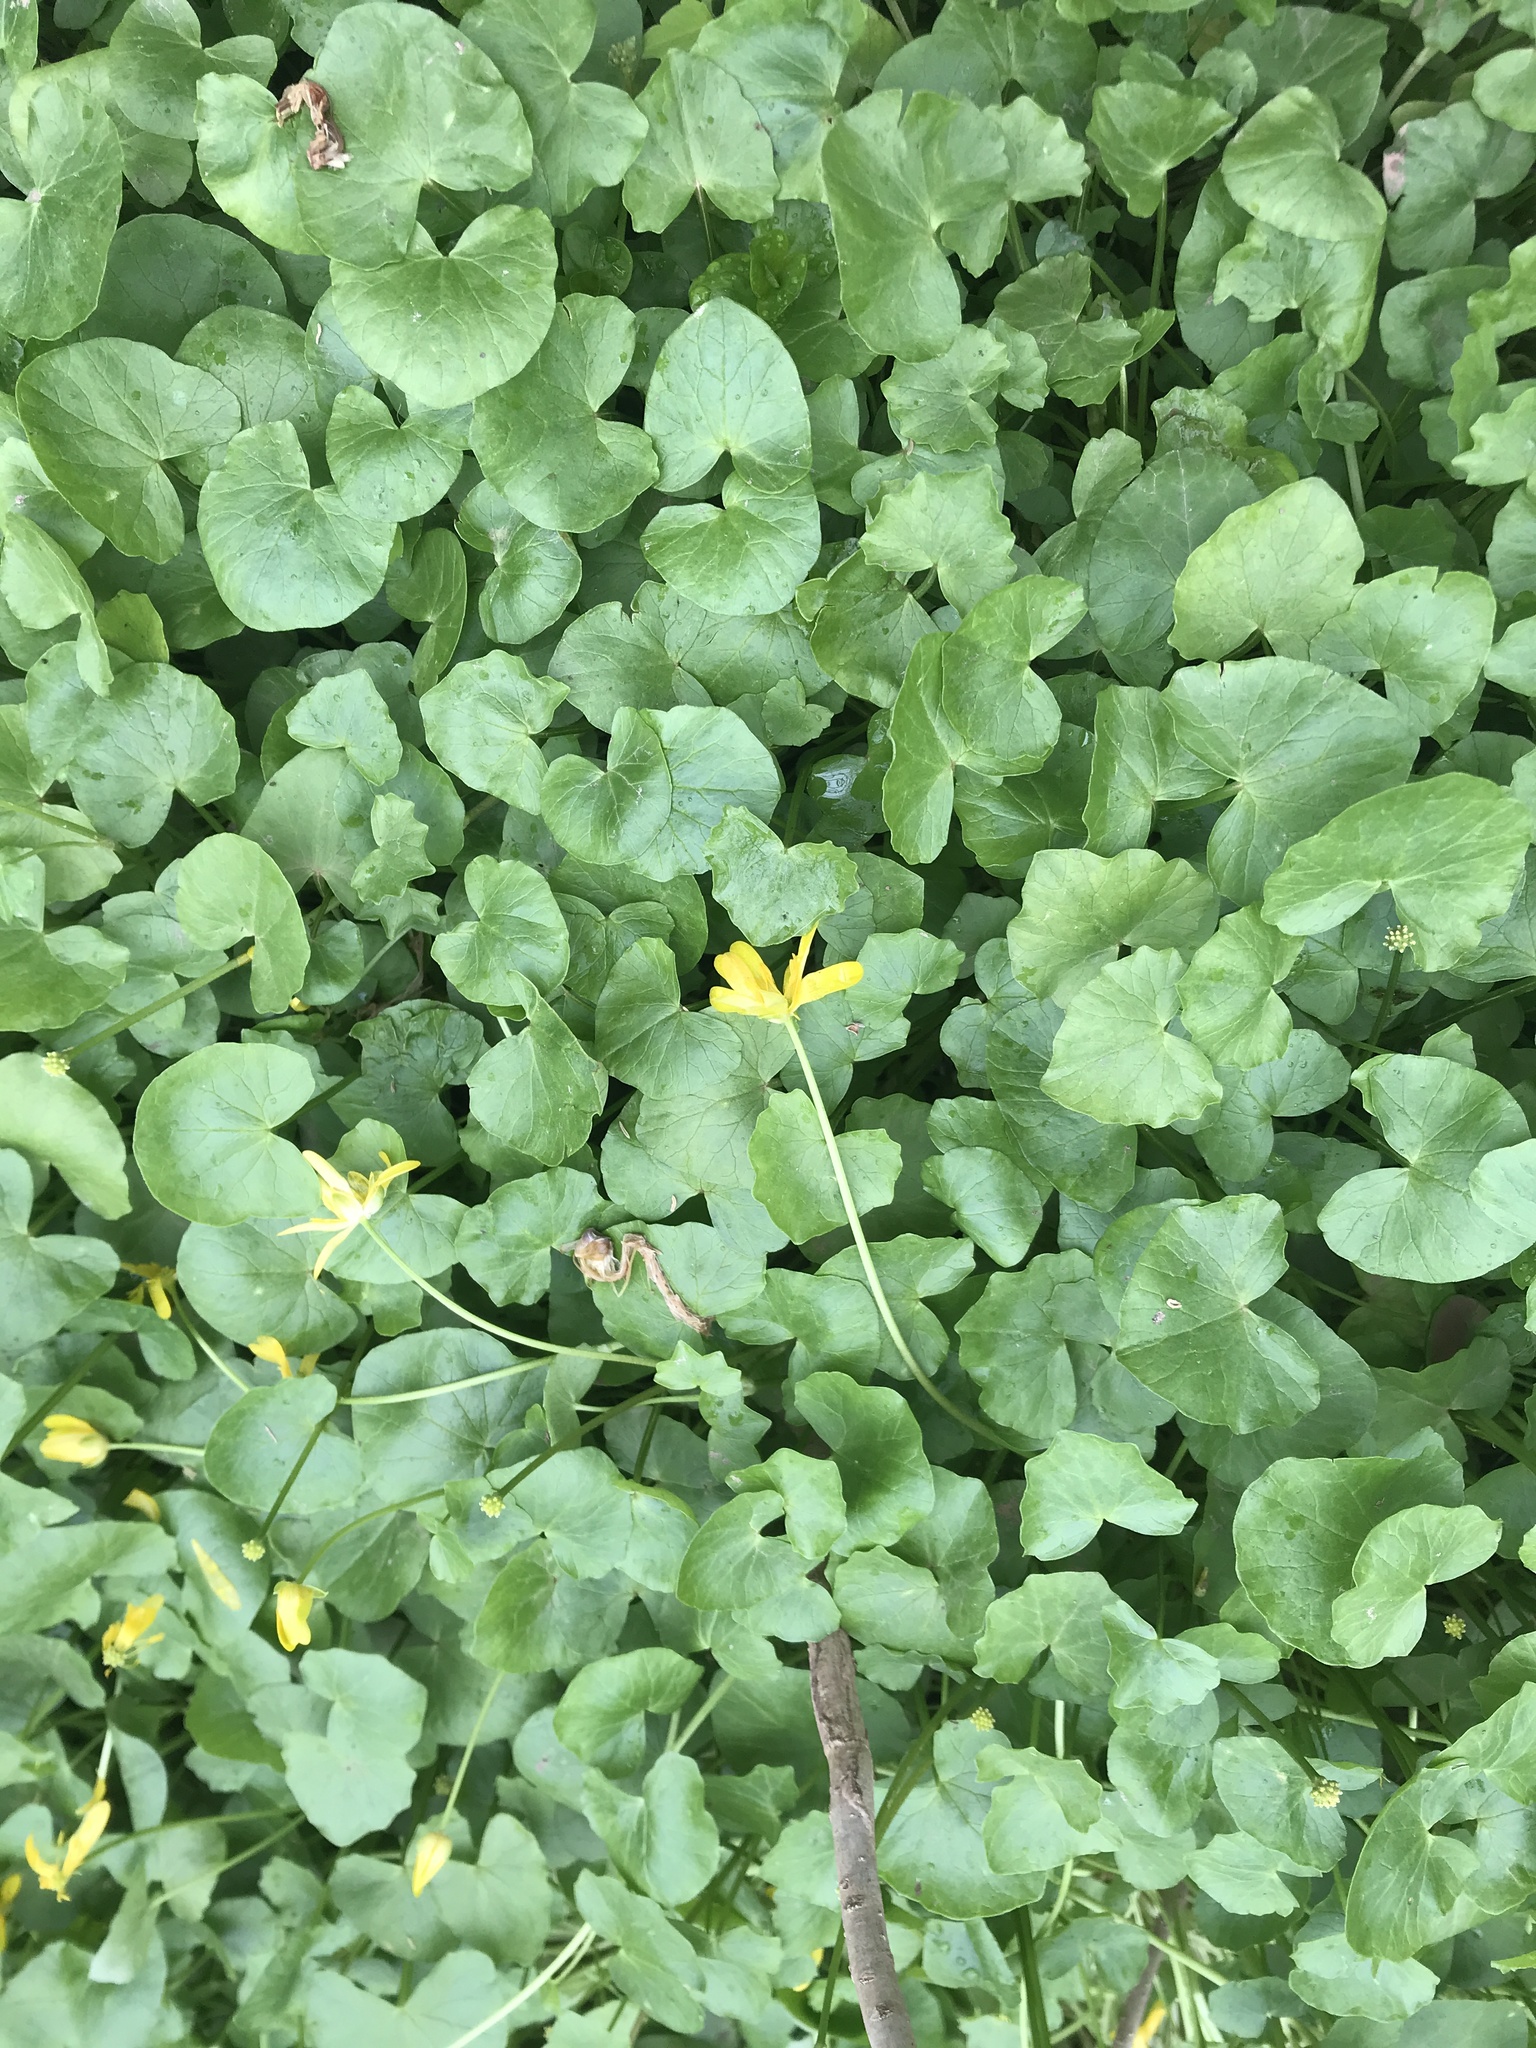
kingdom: Plantae
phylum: Tracheophyta
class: Magnoliopsida
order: Ranunculales
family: Ranunculaceae
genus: Ficaria
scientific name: Ficaria verna
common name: Lesser celandine
